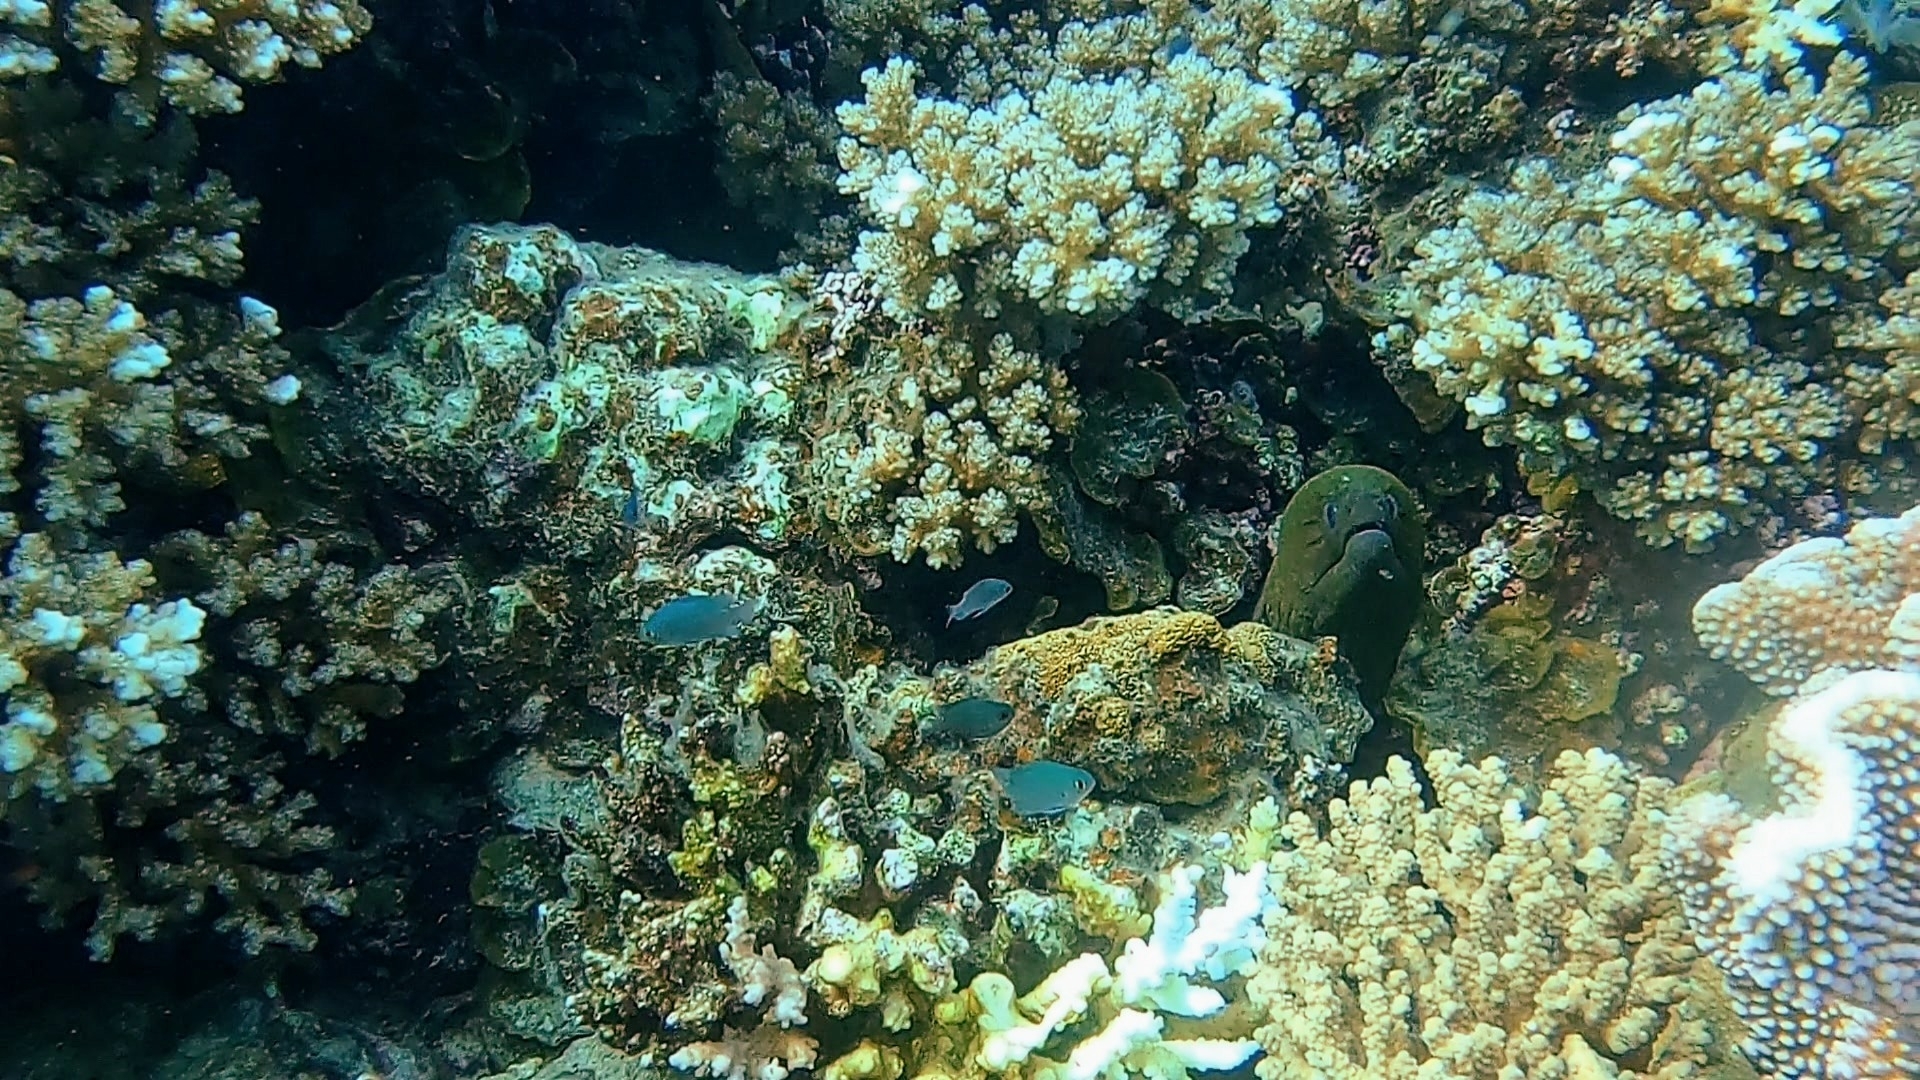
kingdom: Animalia
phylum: Chordata
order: Anguilliformes
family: Muraenidae
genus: Gymnothorax
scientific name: Gymnothorax javanicus
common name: Giant moray
